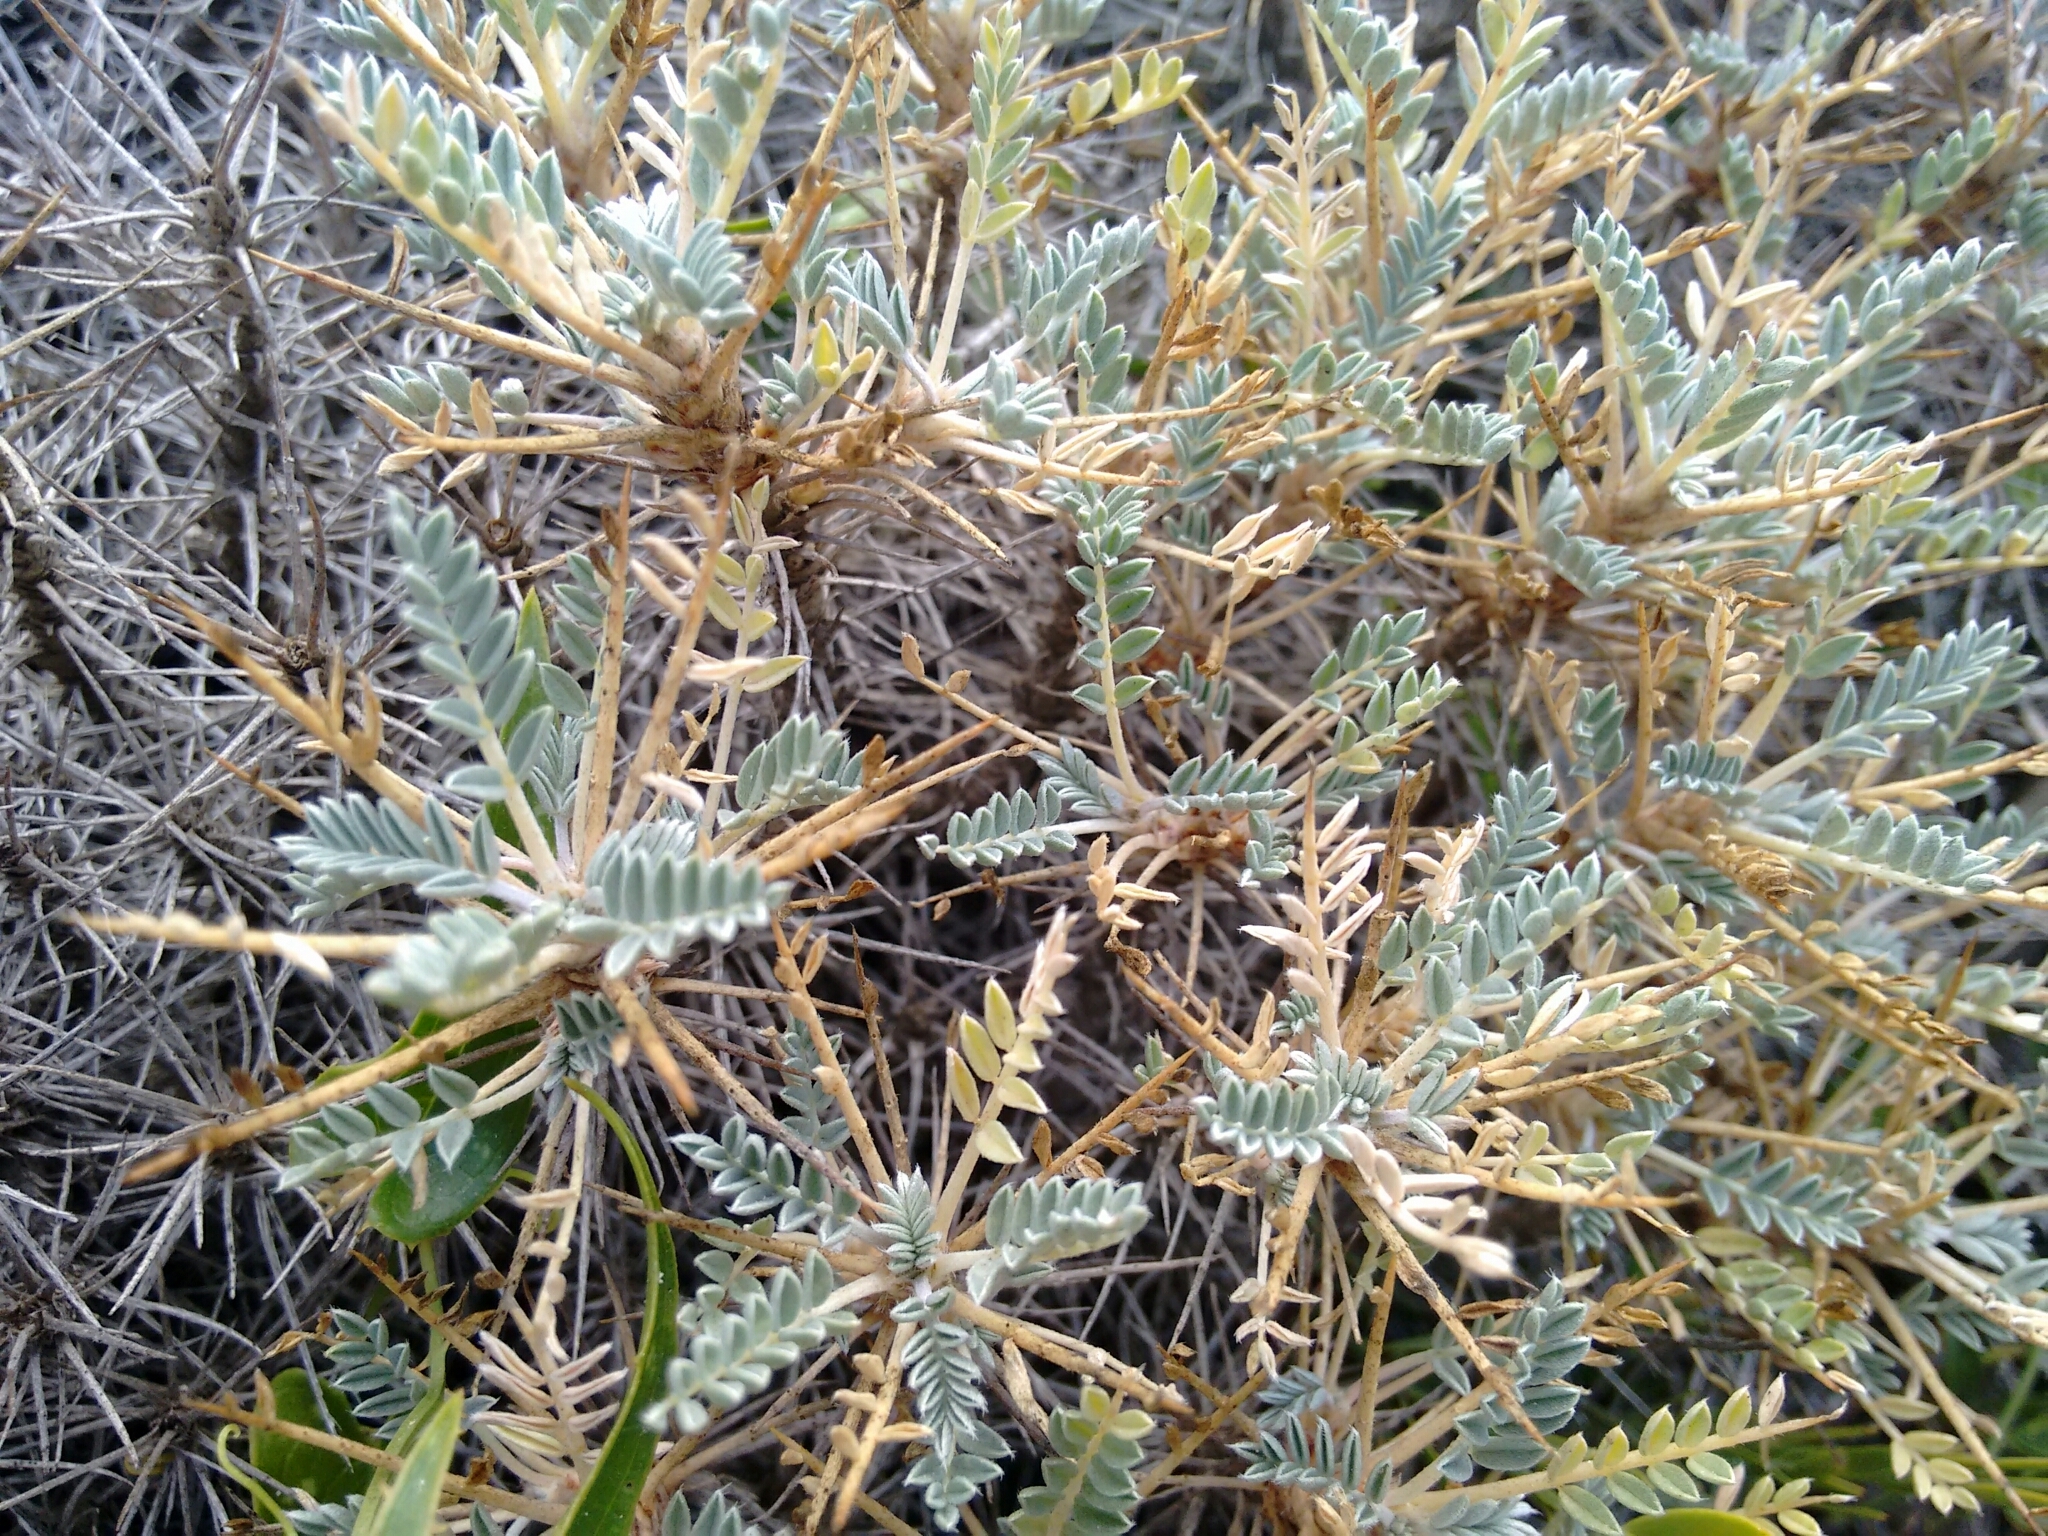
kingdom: Plantae
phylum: Tracheophyta
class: Magnoliopsida
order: Fabales
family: Fabaceae
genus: Astragalus
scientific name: Astragalus terraccianoi
